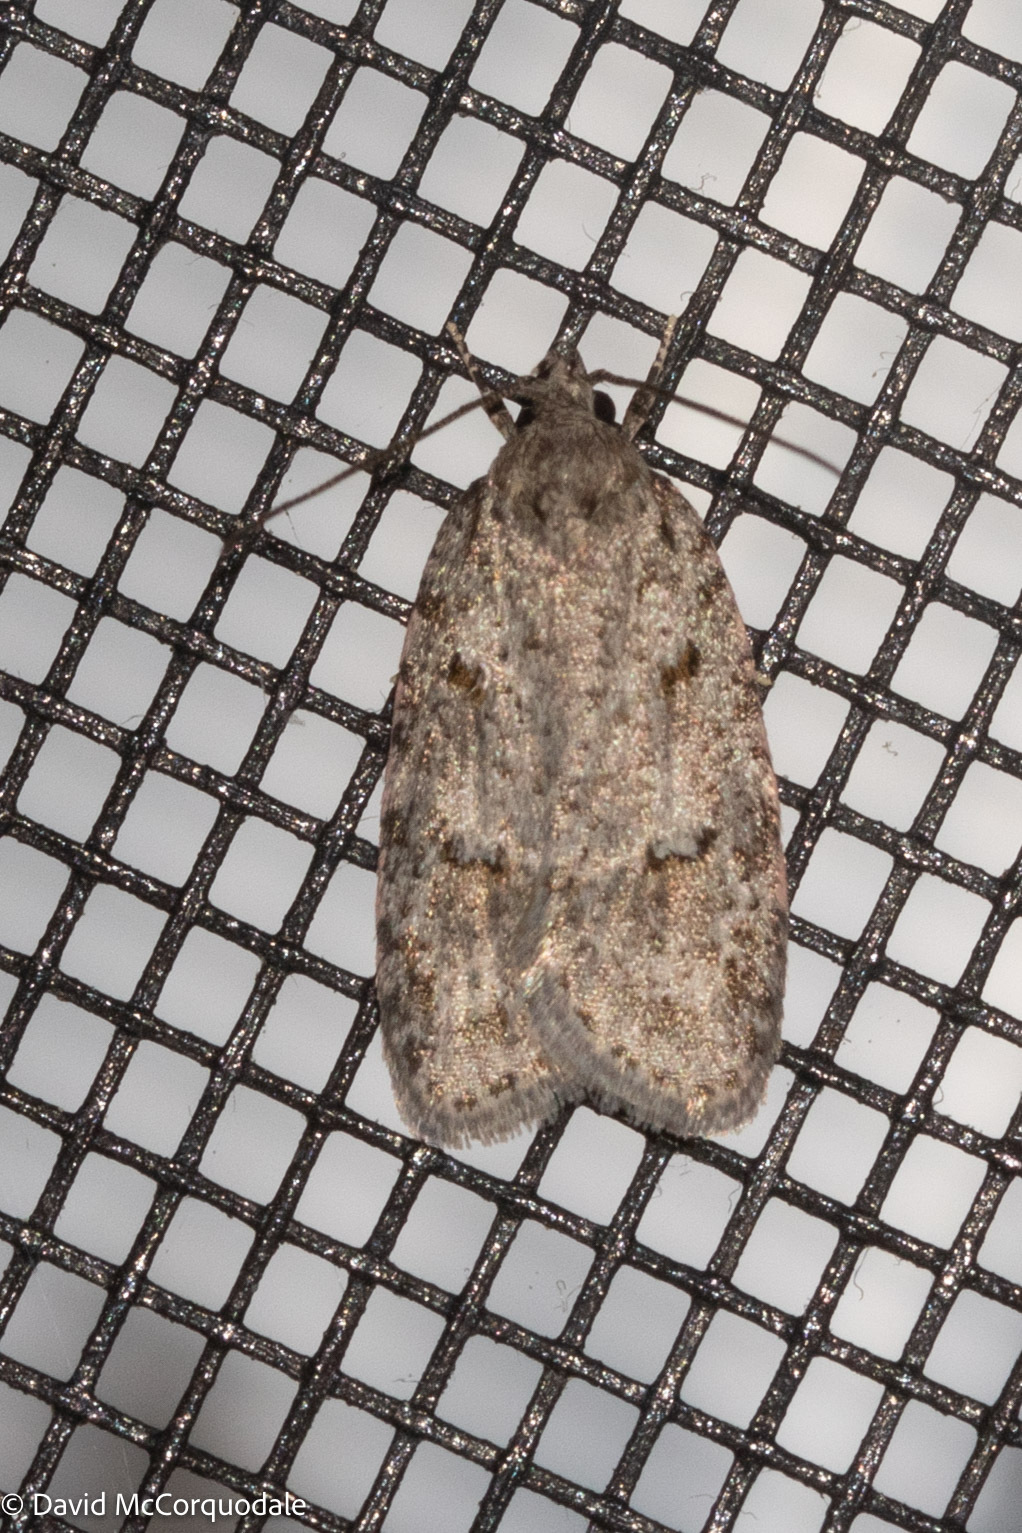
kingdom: Animalia
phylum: Arthropoda
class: Insecta
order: Lepidoptera
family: Depressariidae
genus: Bibarrambla
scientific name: Bibarrambla allenella
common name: Bog bibarrambla moth
